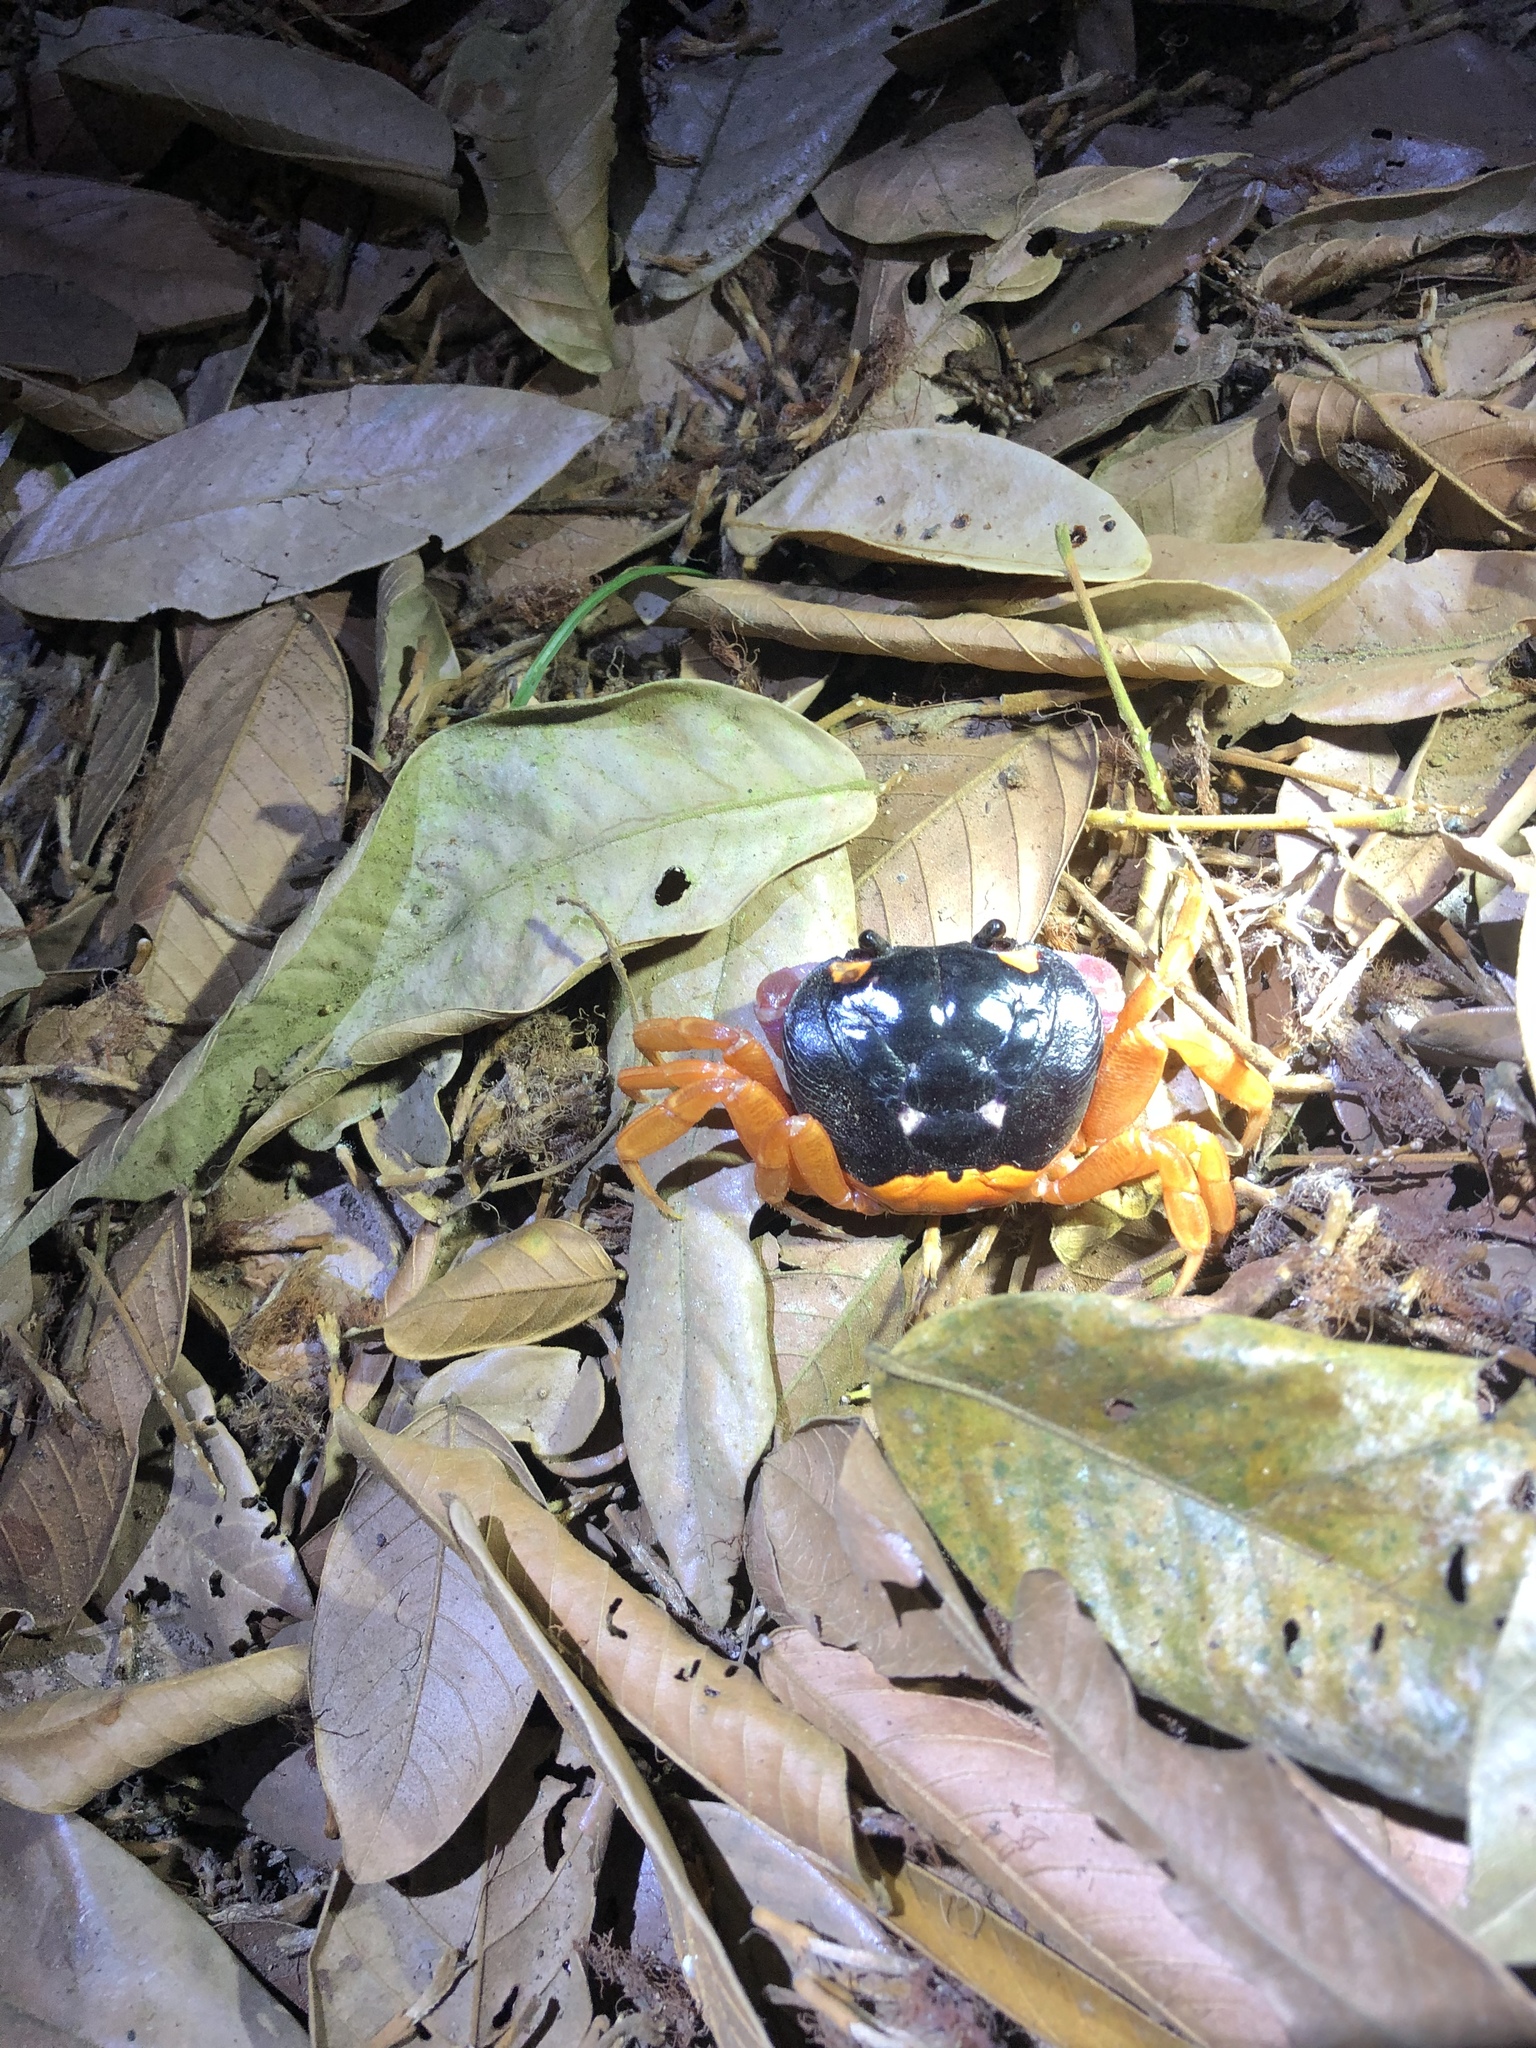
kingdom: Animalia
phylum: Arthropoda
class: Malacostraca
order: Decapoda
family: Gecarcinidae
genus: Gecarcinus
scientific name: Gecarcinus quadratus
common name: Halloween crab
